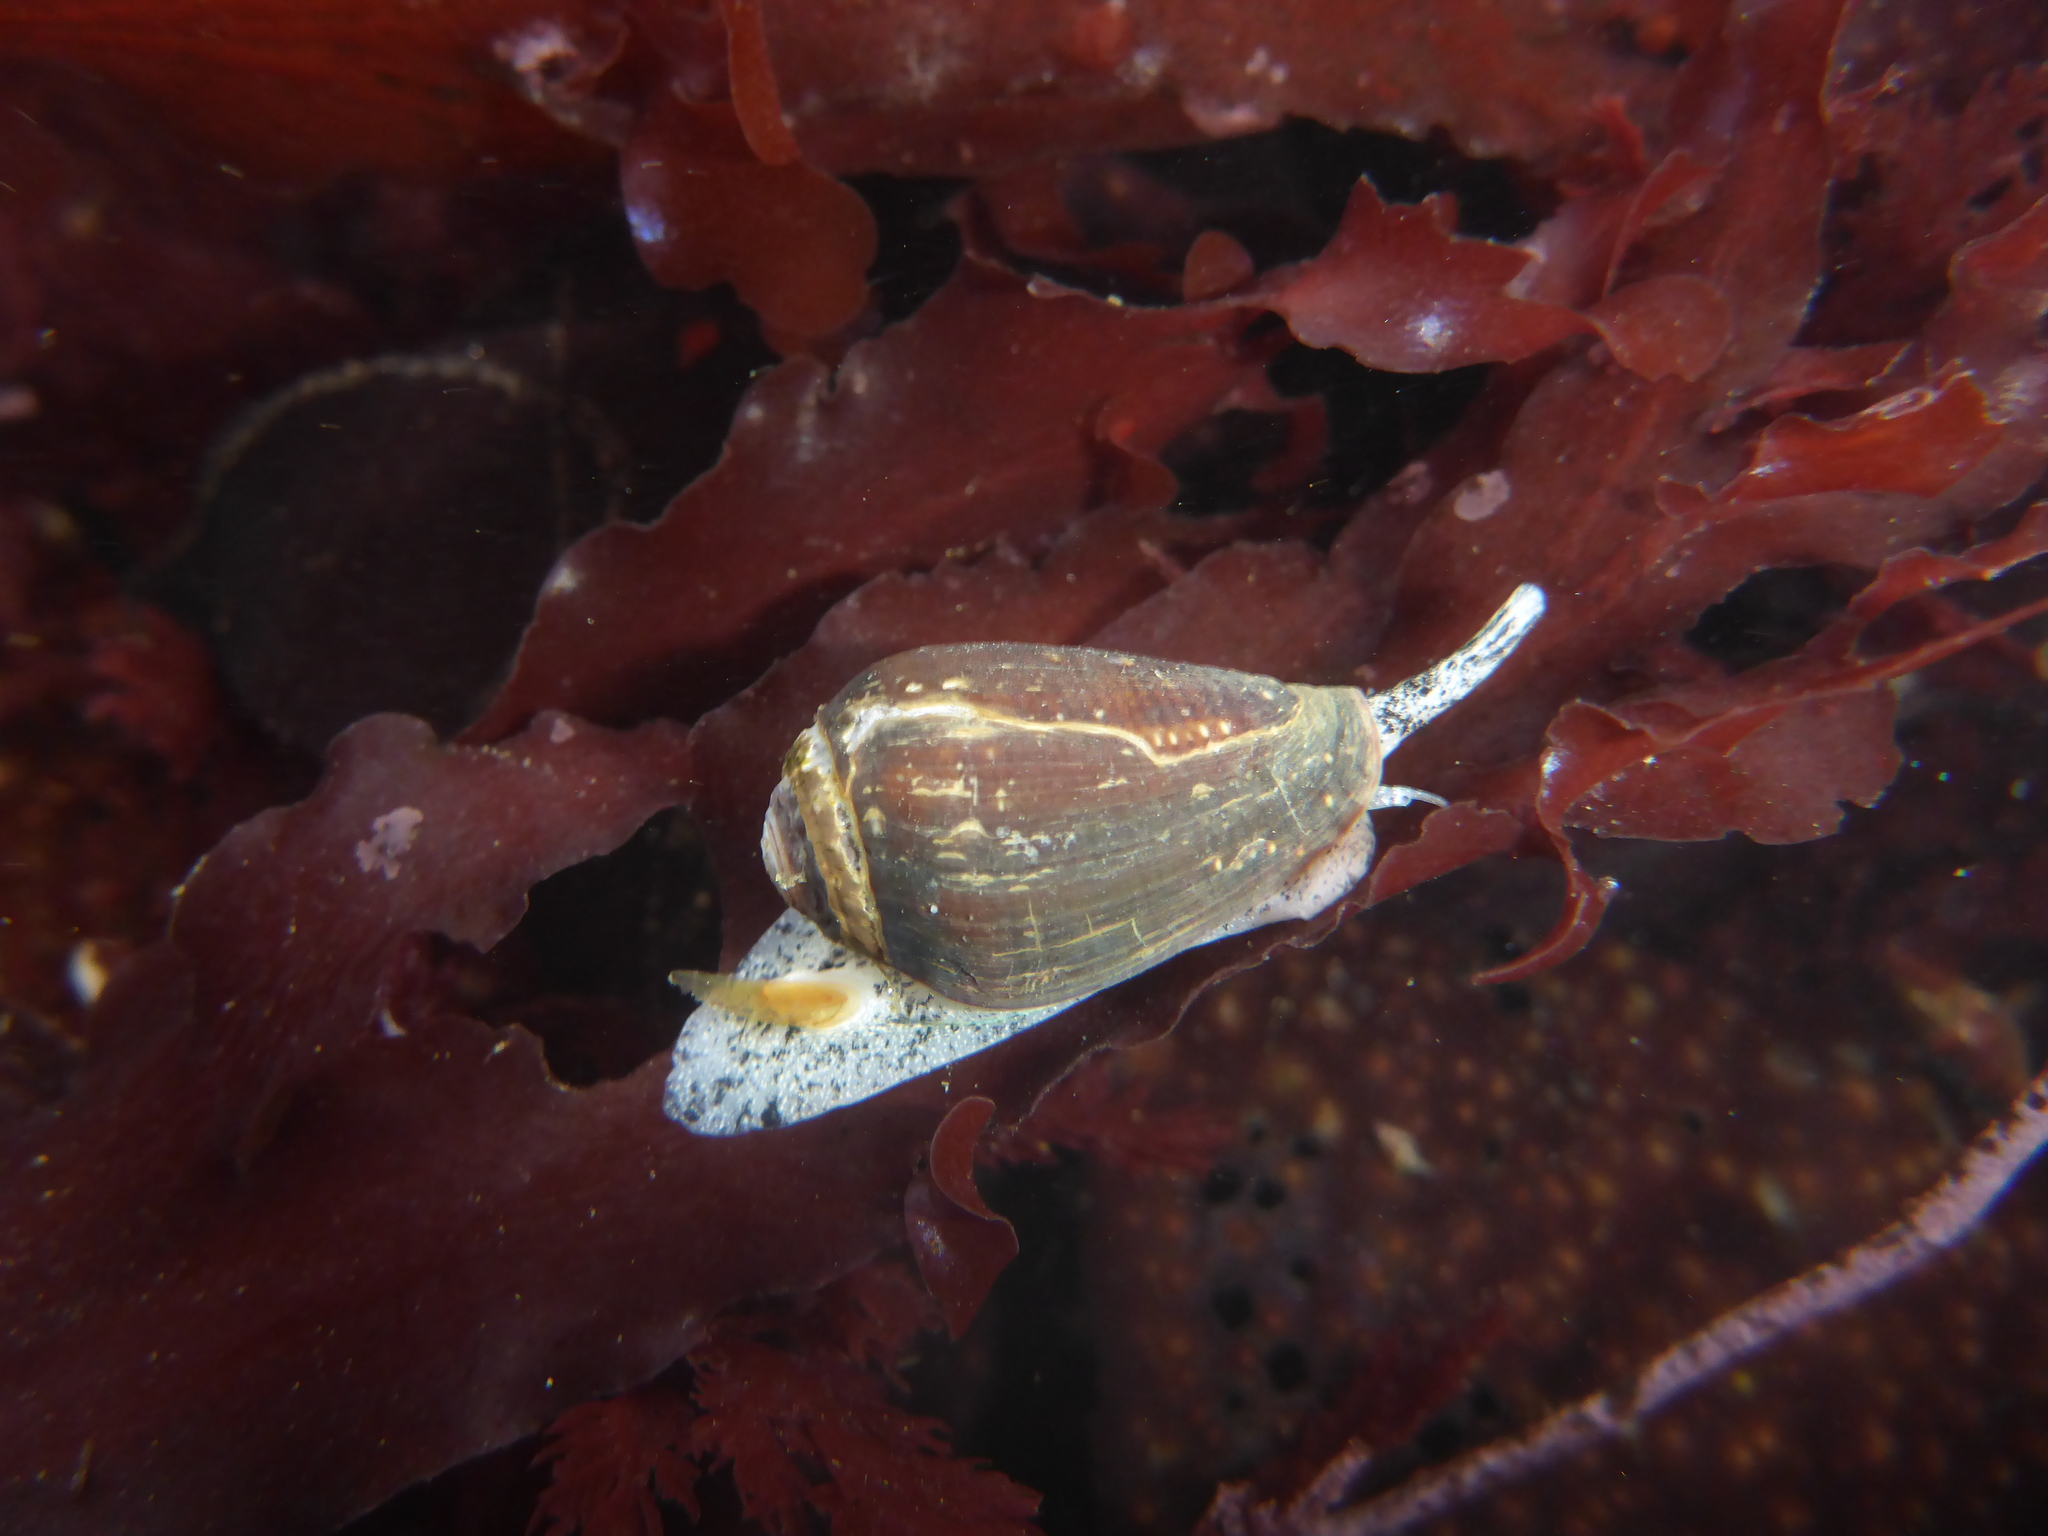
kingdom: Animalia
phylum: Mollusca
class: Gastropoda
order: Neogastropoda
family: Conidae
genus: Californiconus
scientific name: Californiconus californicus
